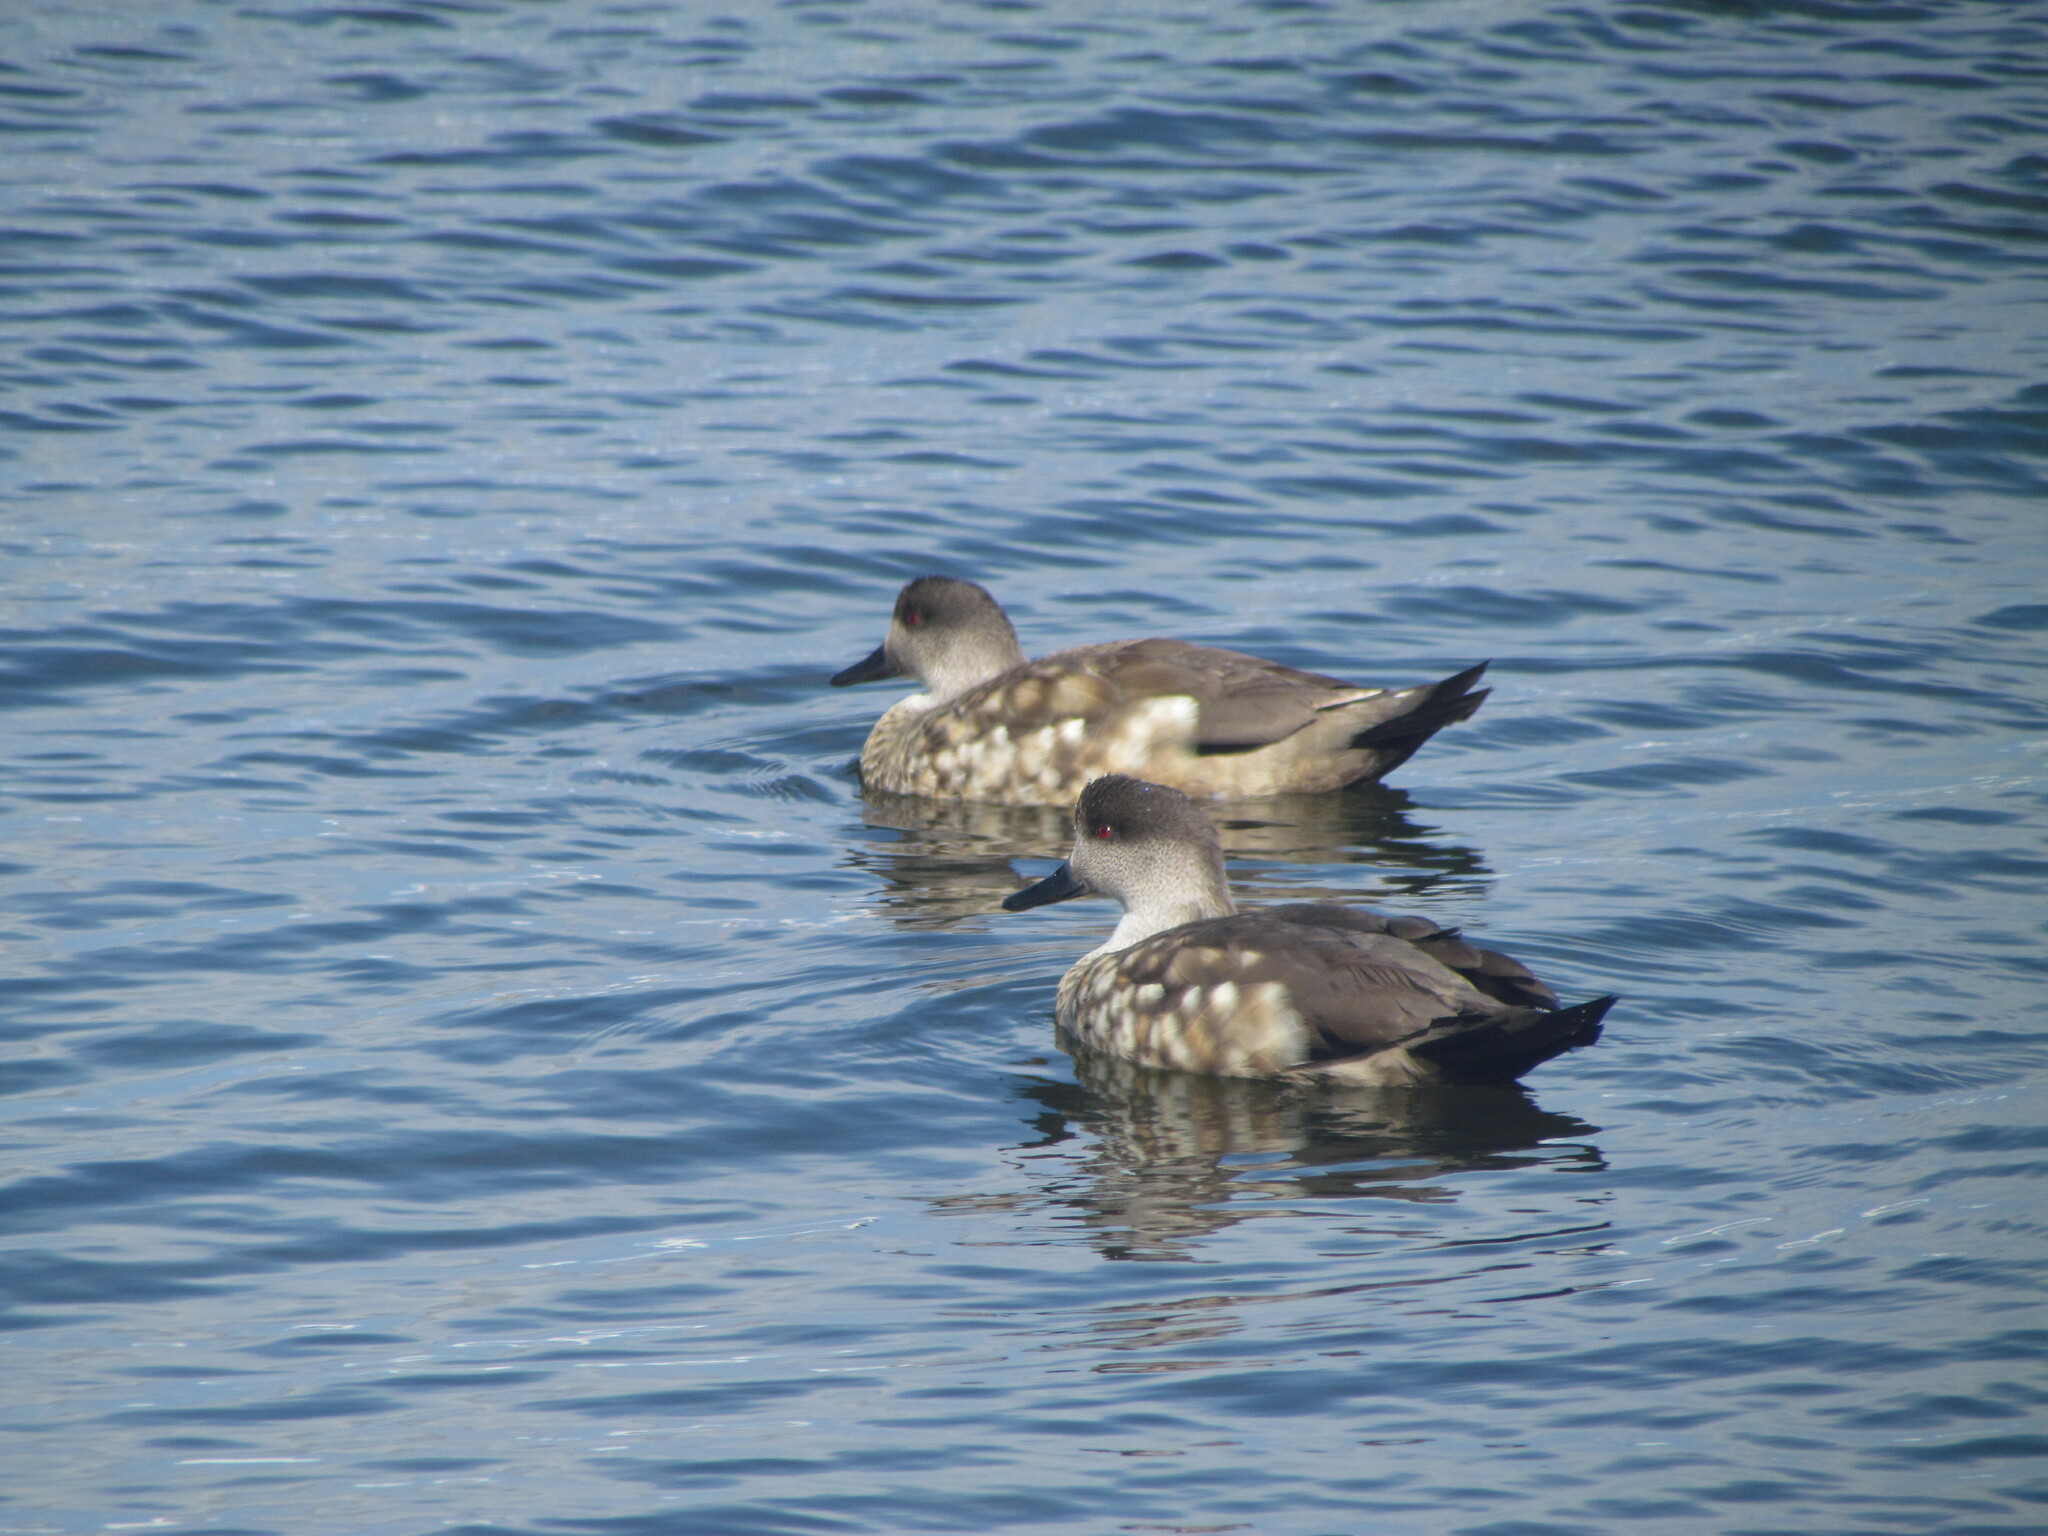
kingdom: Animalia
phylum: Chordata
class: Aves
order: Anseriformes
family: Anatidae
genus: Lophonetta
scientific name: Lophonetta specularioides
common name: Crested duck
